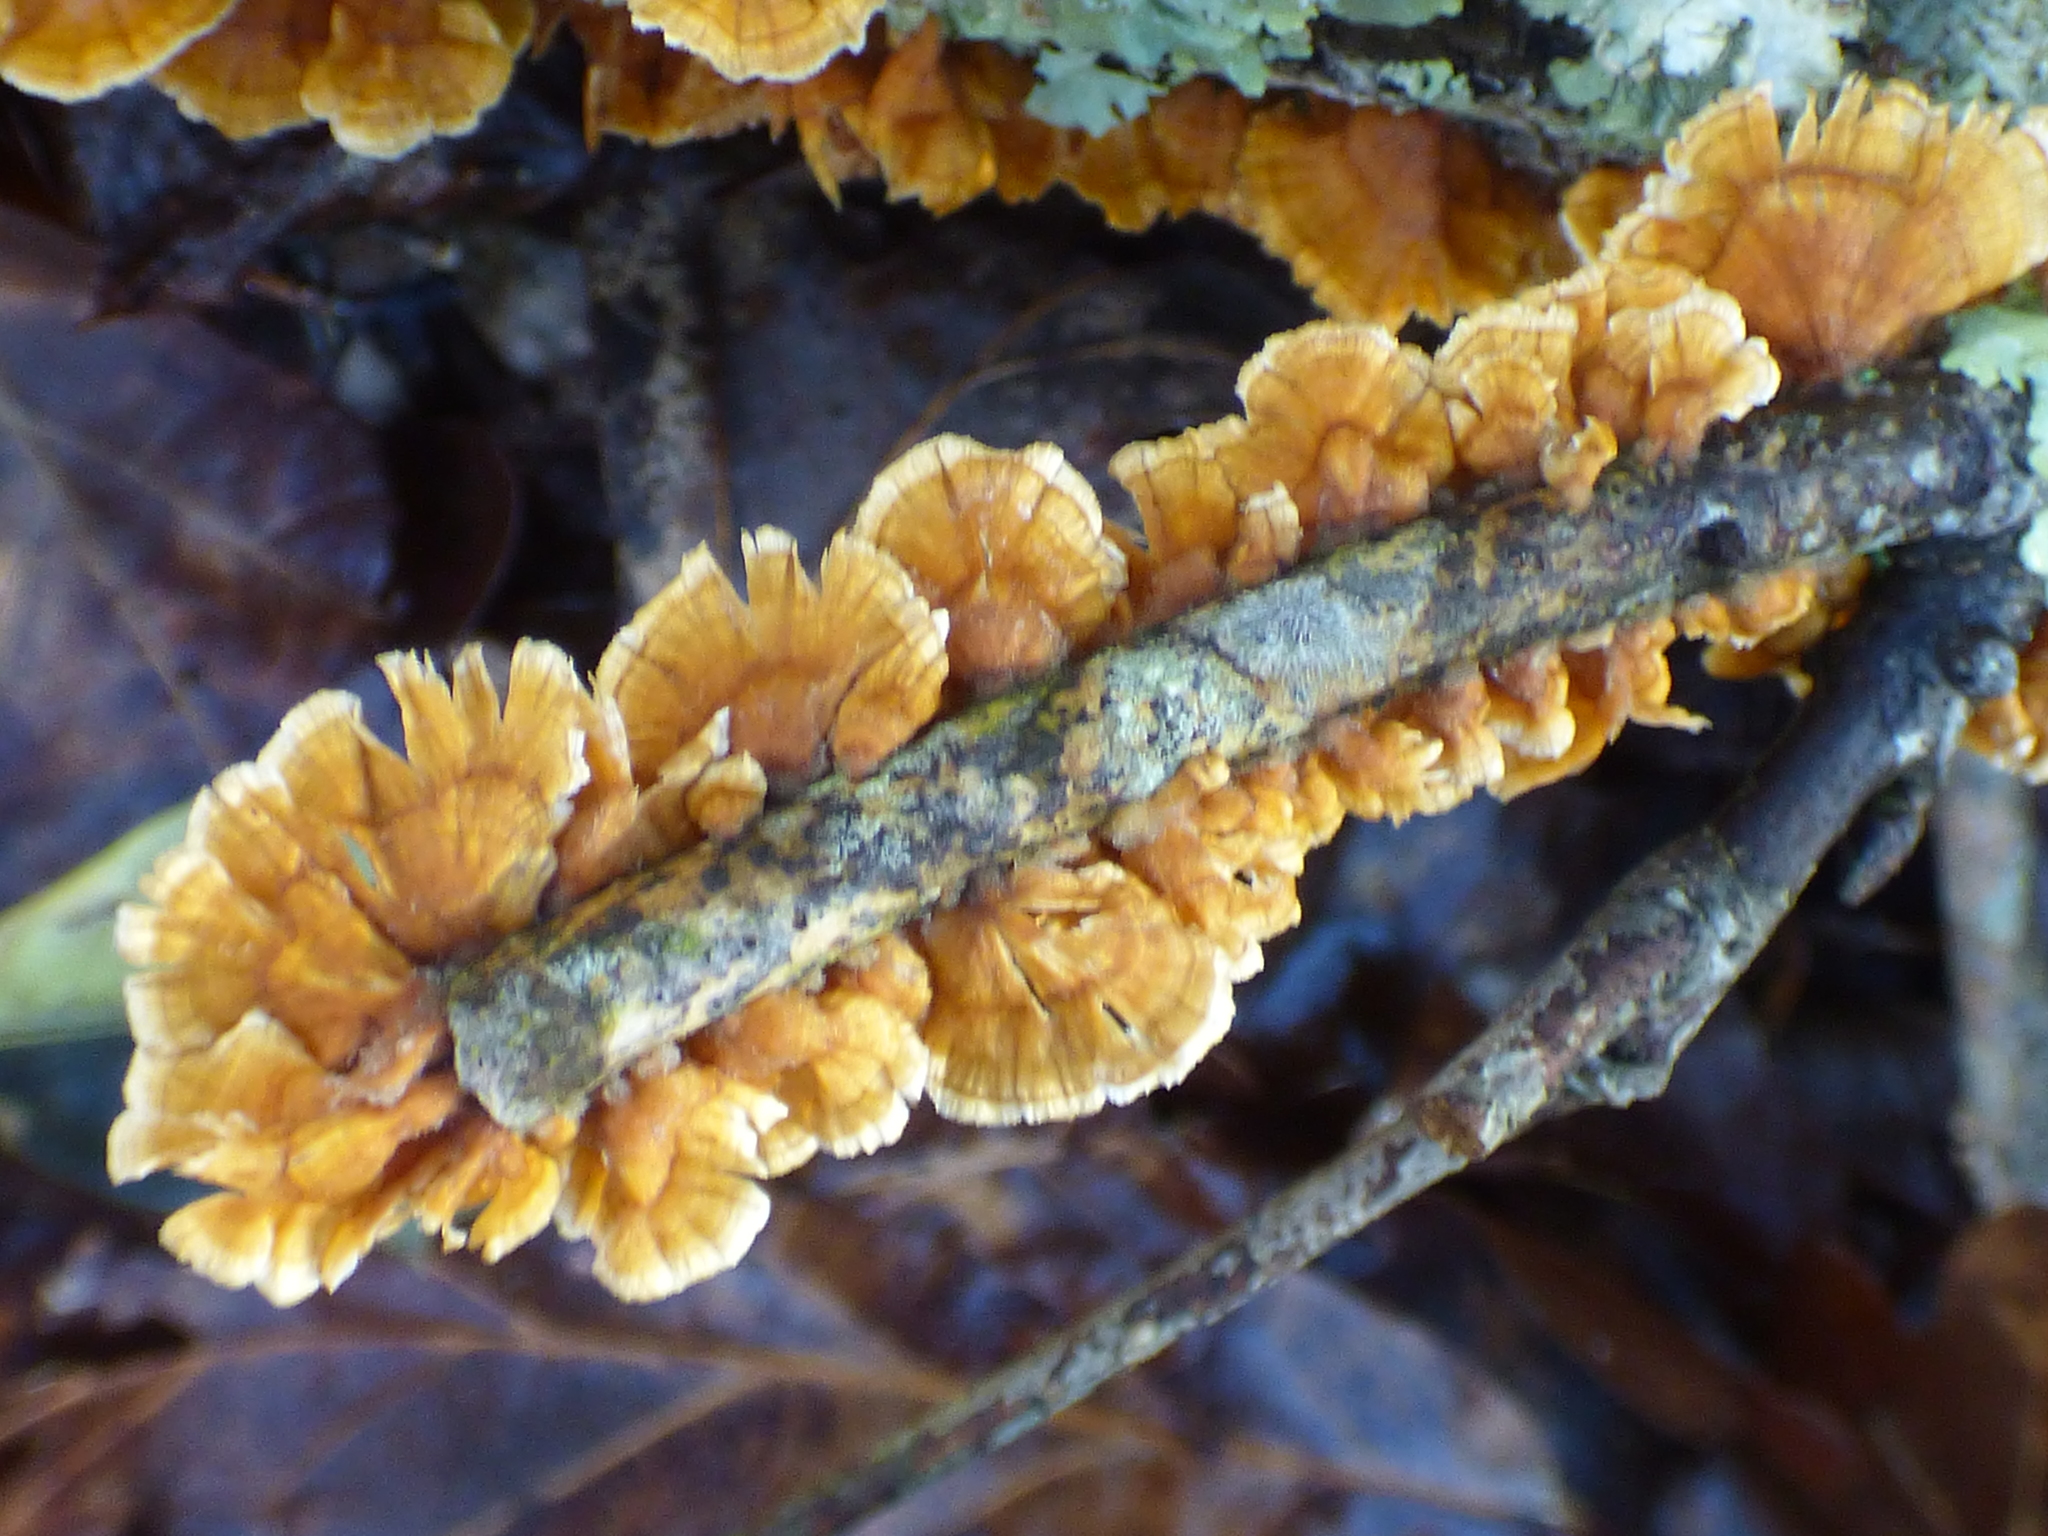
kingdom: Fungi
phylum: Basidiomycota
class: Agaricomycetes
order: Russulales
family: Stereaceae
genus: Stereum
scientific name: Stereum complicatum
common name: Crowded parchment
